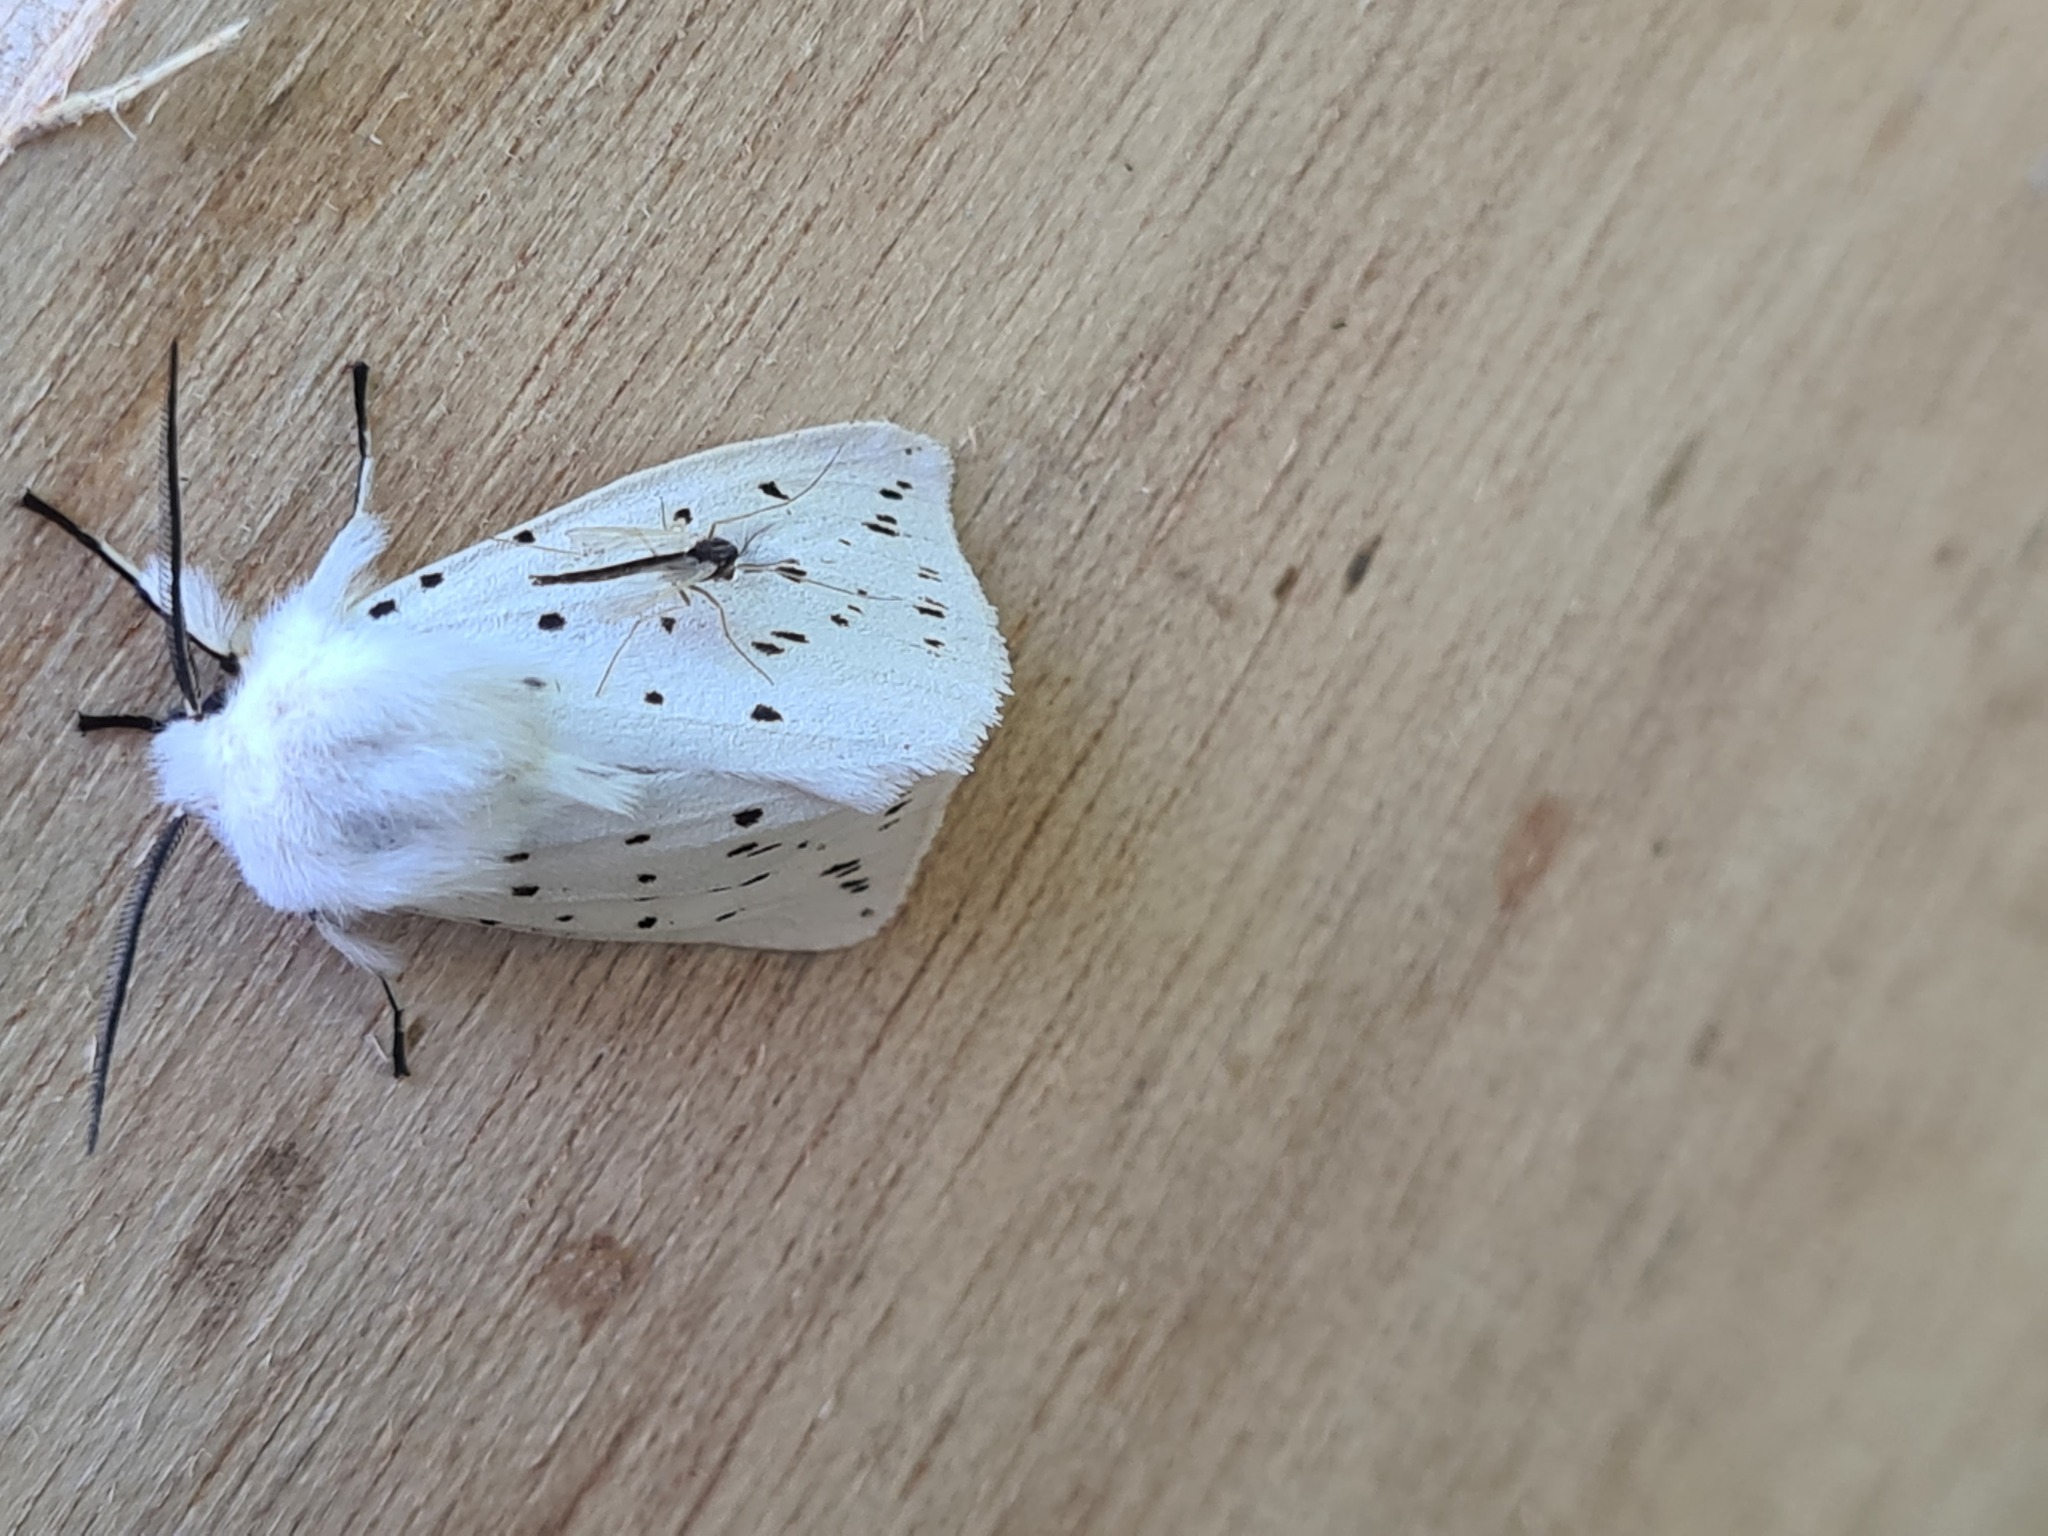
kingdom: Animalia
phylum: Arthropoda
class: Insecta
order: Lepidoptera
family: Erebidae
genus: Spilosoma
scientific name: Spilosoma lubricipeda
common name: White ermine
